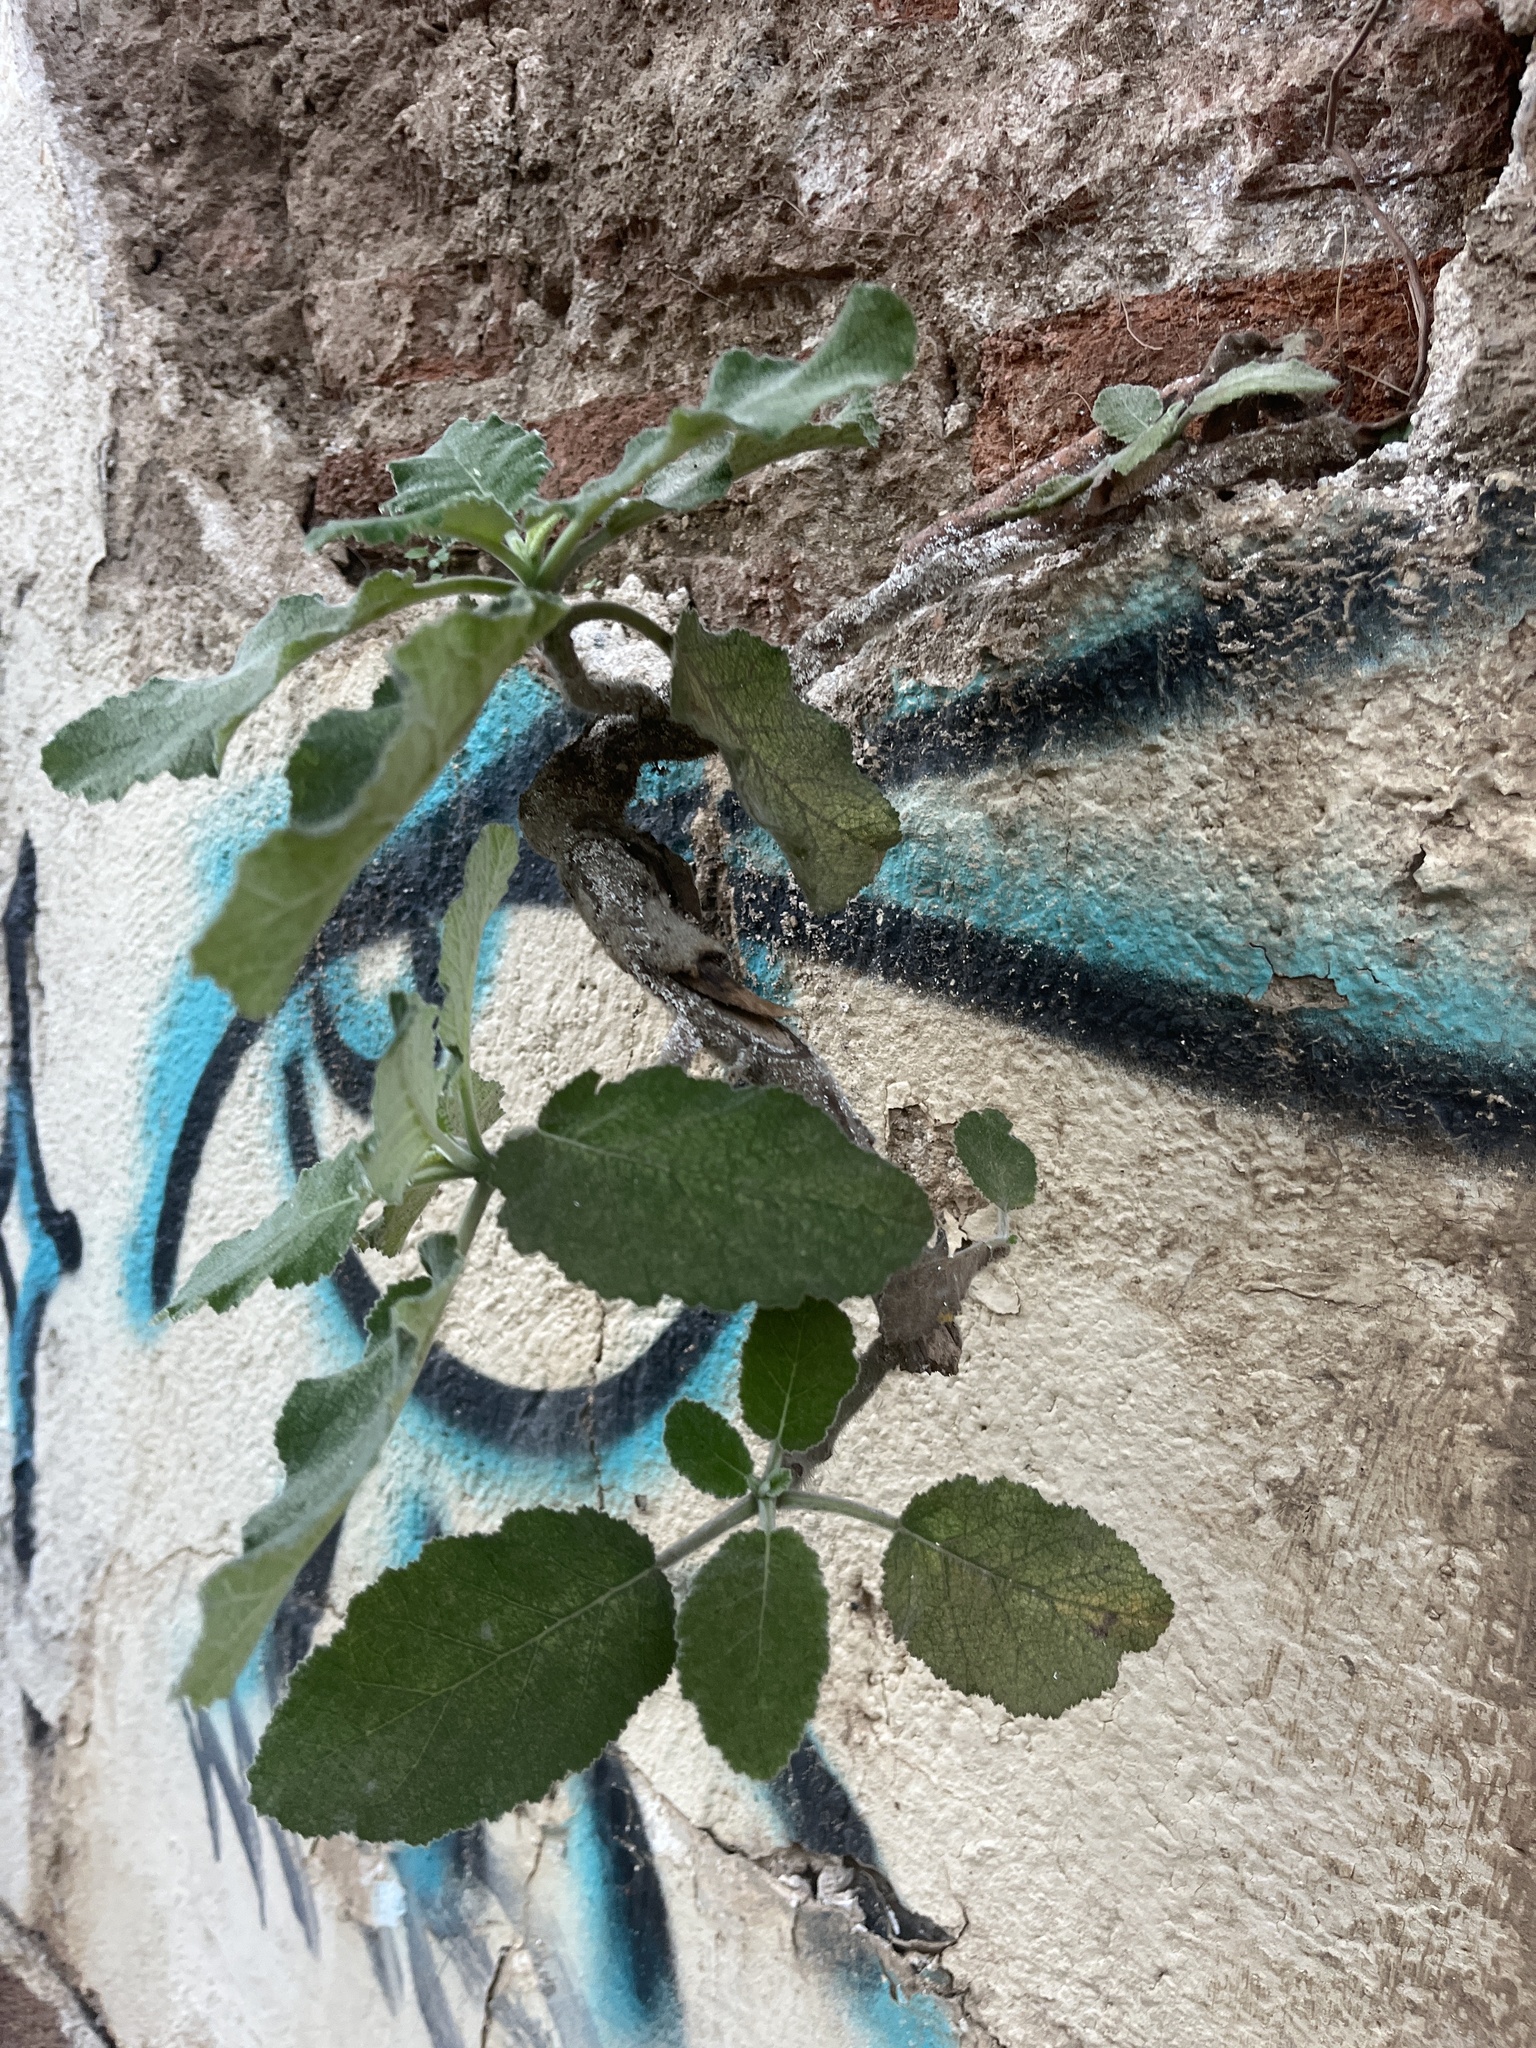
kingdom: Plantae
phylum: Tracheophyta
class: Magnoliopsida
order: Boraginales
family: Namaceae
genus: Wigandia
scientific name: Wigandia urens
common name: Caracus wigandia
